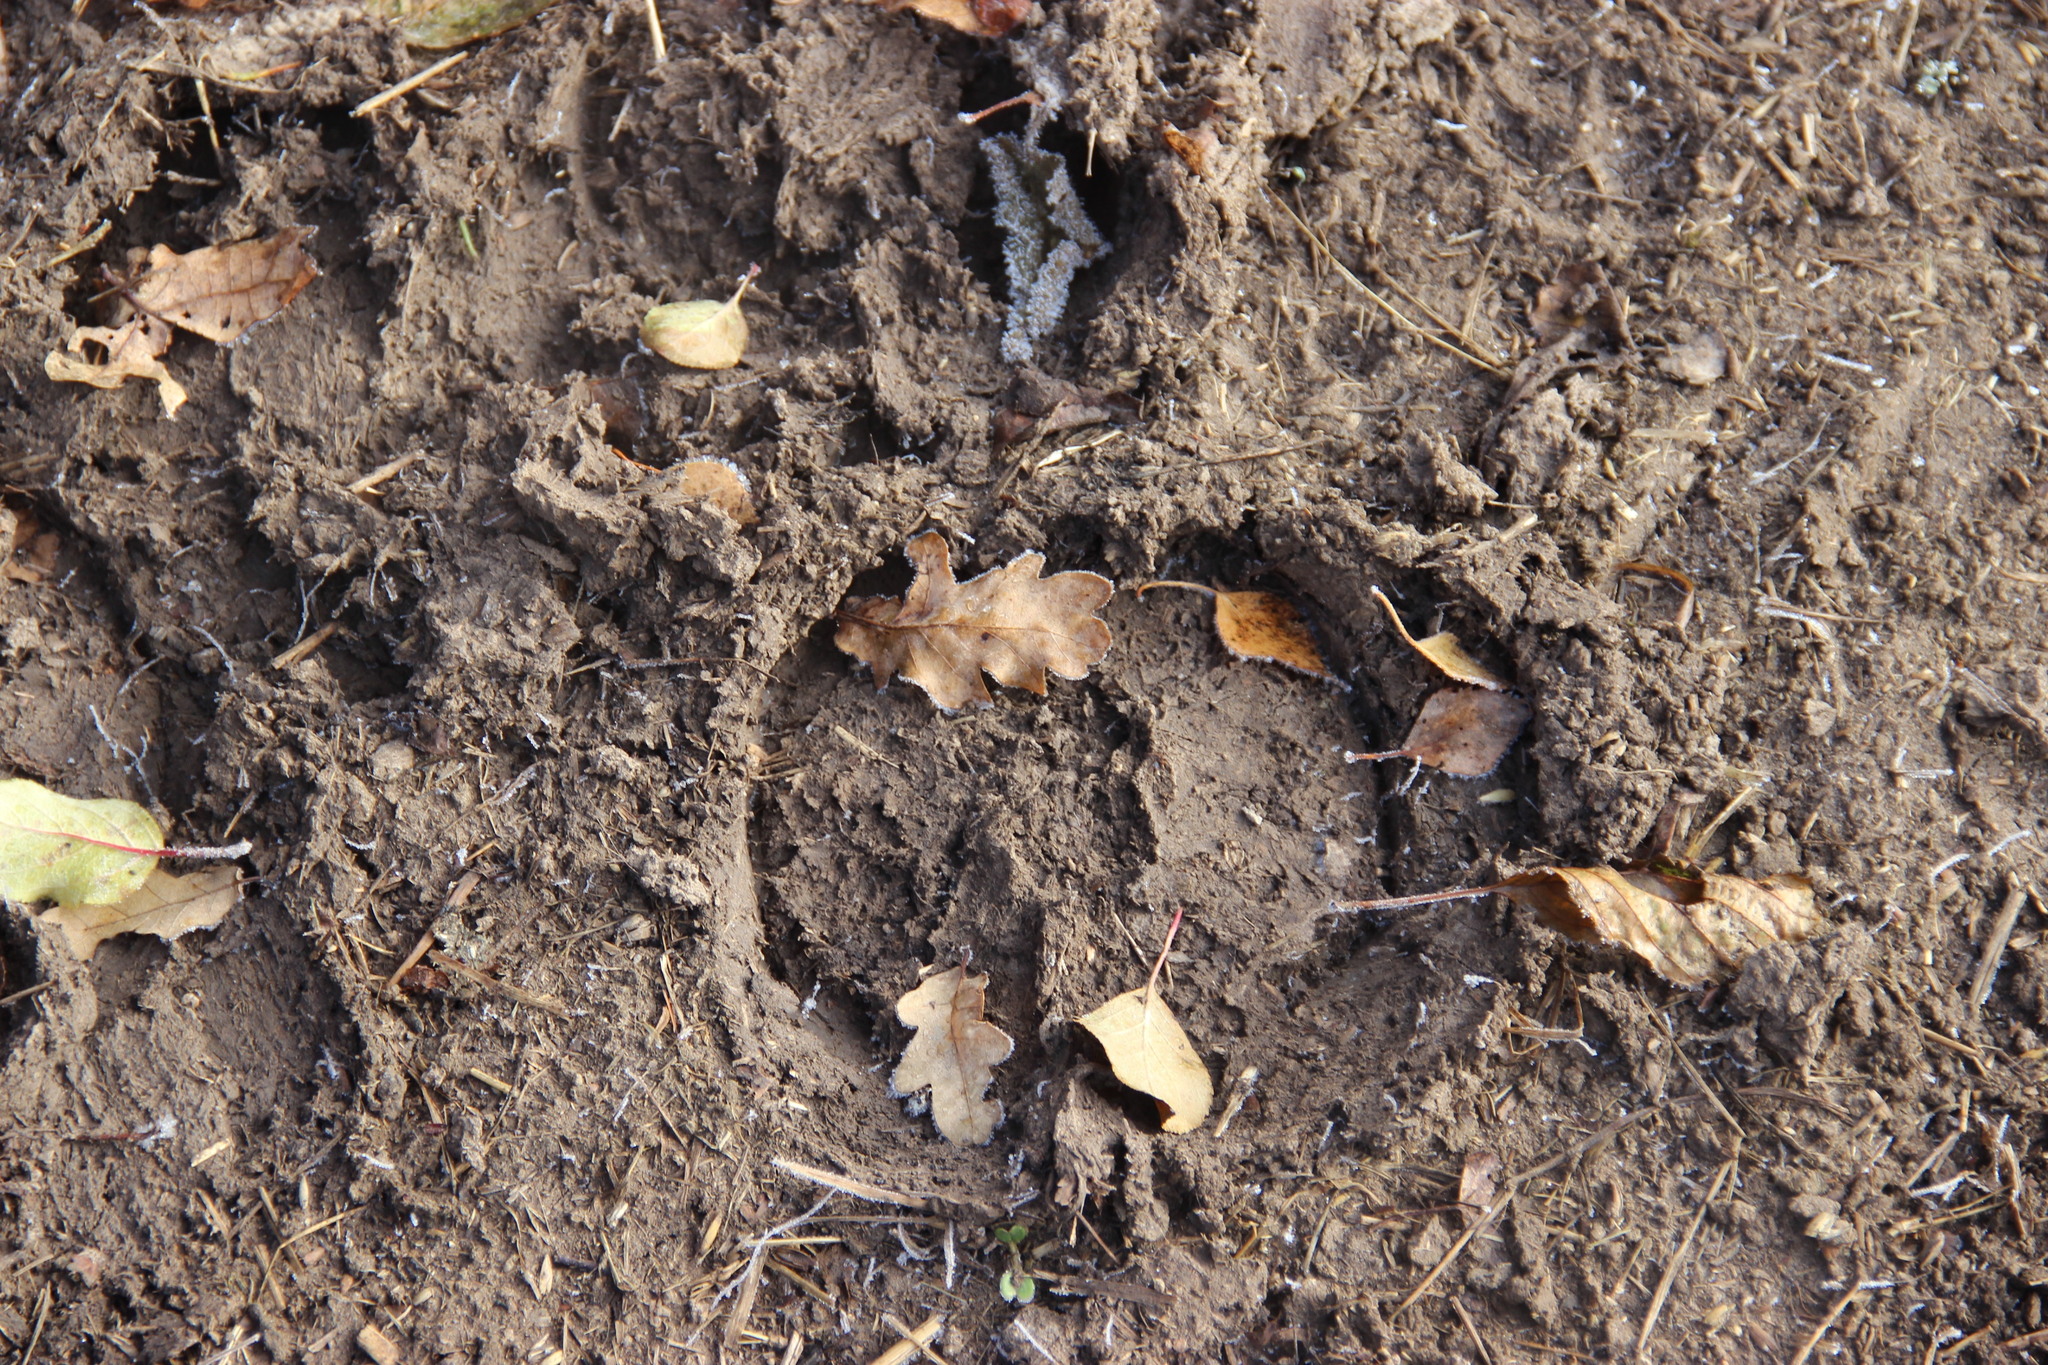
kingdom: Animalia
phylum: Chordata
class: Mammalia
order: Artiodactyla
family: Bovidae
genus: Bison
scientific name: Bison bonasus
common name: European bison
